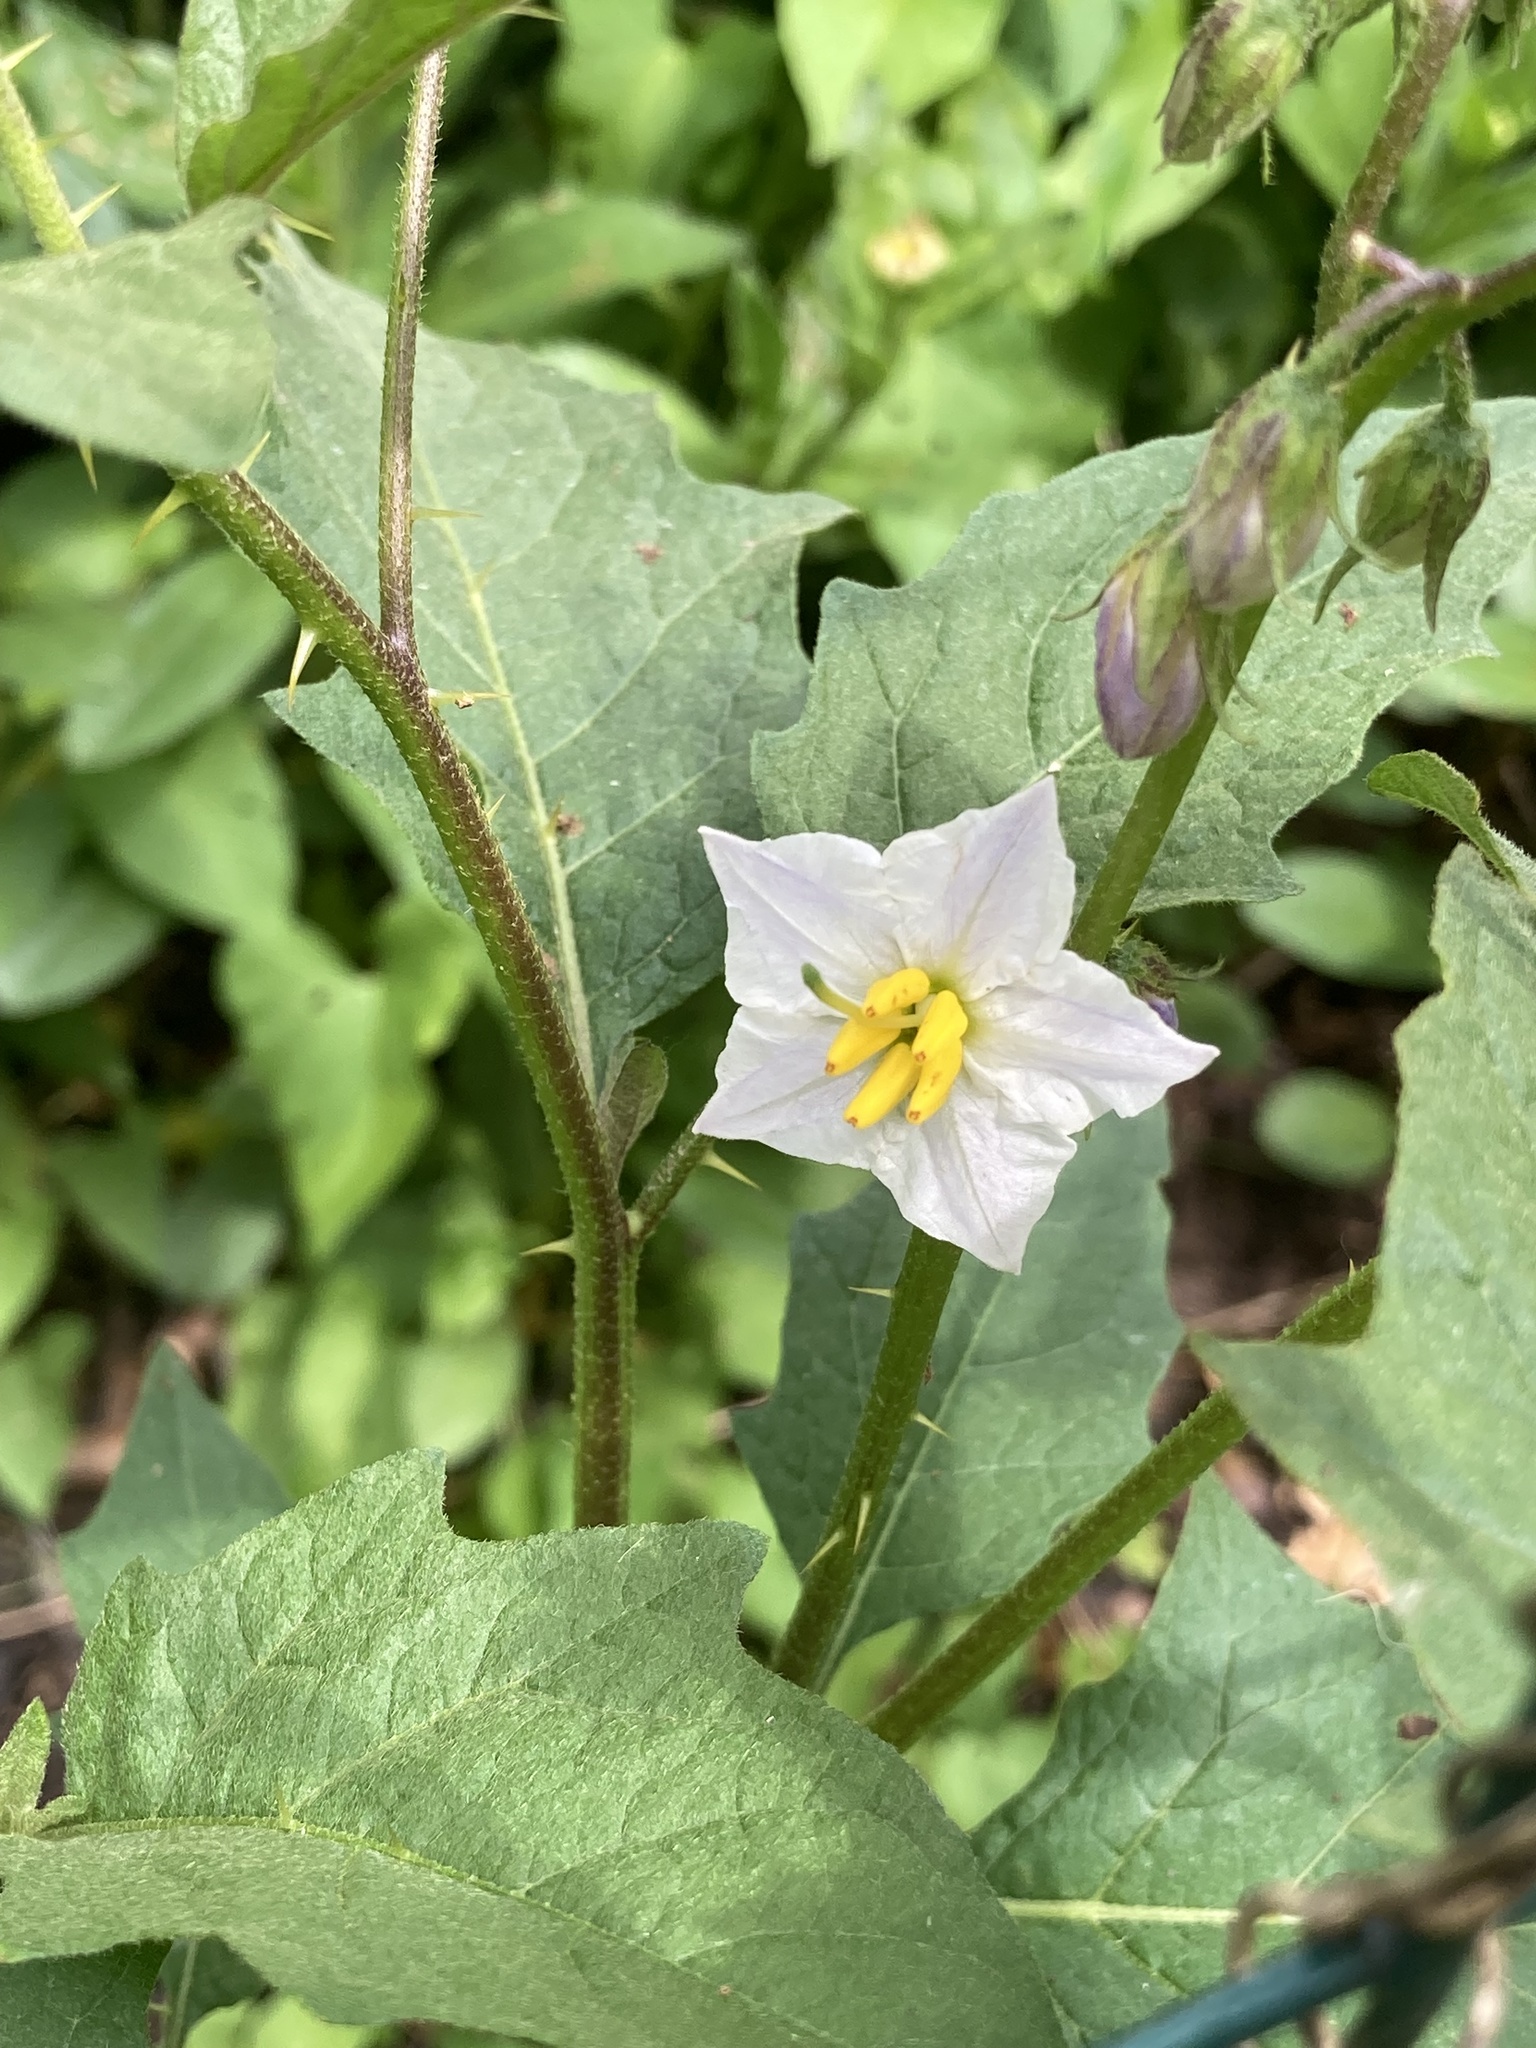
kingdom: Plantae
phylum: Tracheophyta
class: Magnoliopsida
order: Solanales
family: Solanaceae
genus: Solanum
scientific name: Solanum carolinense
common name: Horse-nettle
